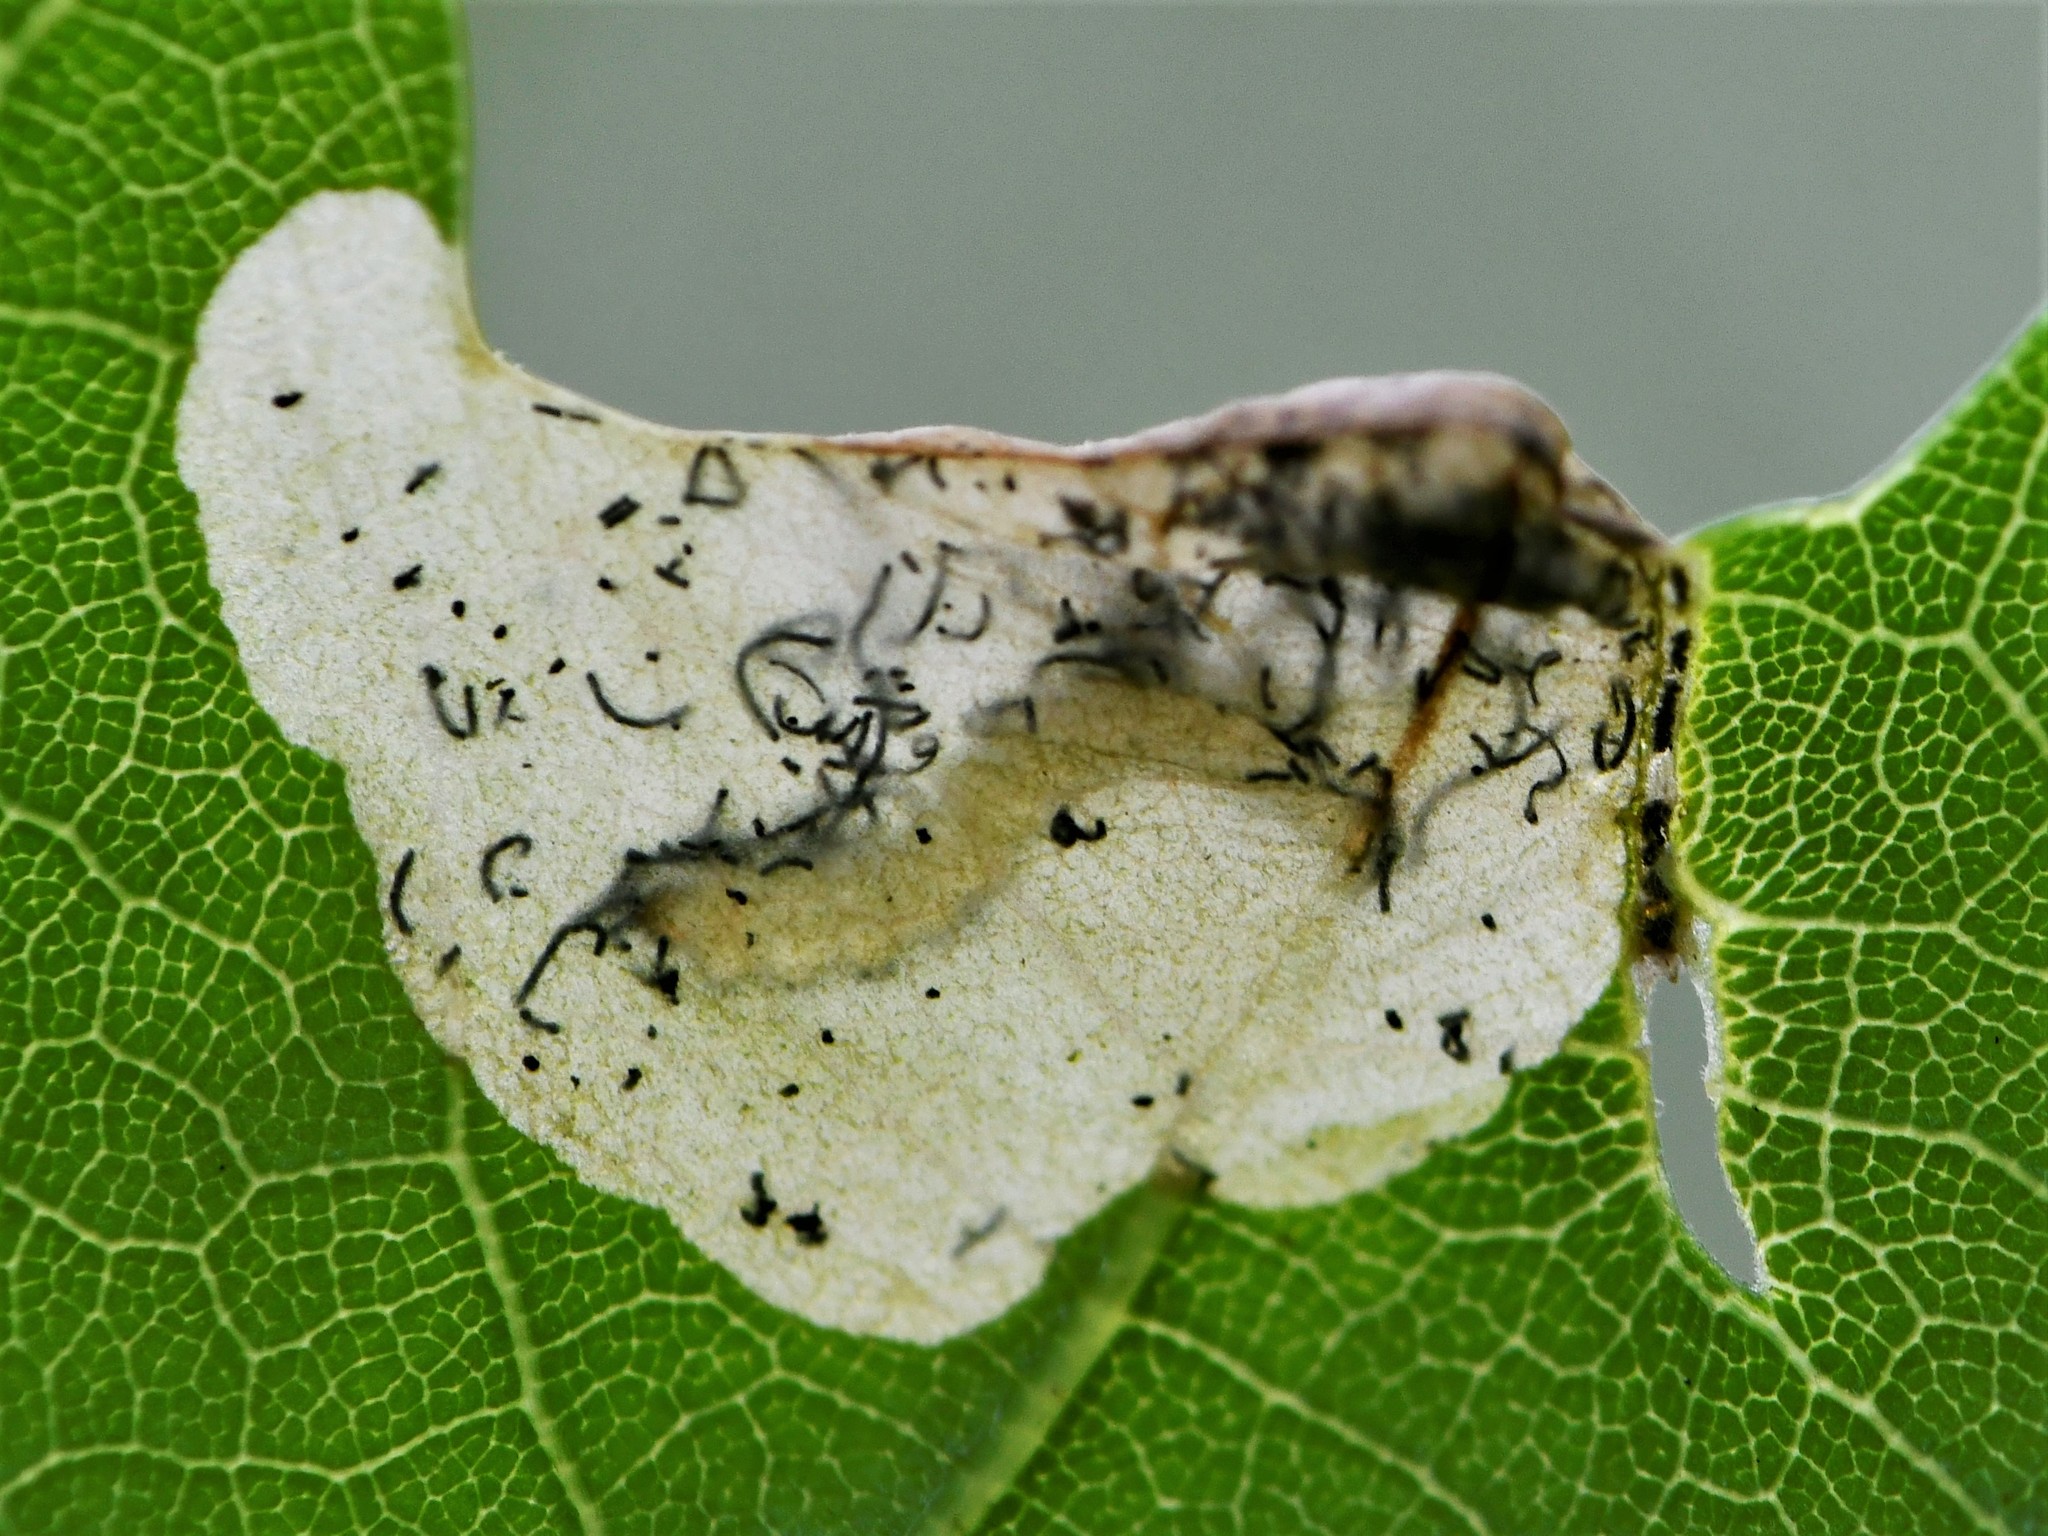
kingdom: Animalia
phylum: Arthropoda
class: Insecta
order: Lepidoptera
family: Eriocraniidae
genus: Dyseriocrania
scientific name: Dyseriocrania subpurpurella
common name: Common oak purple
